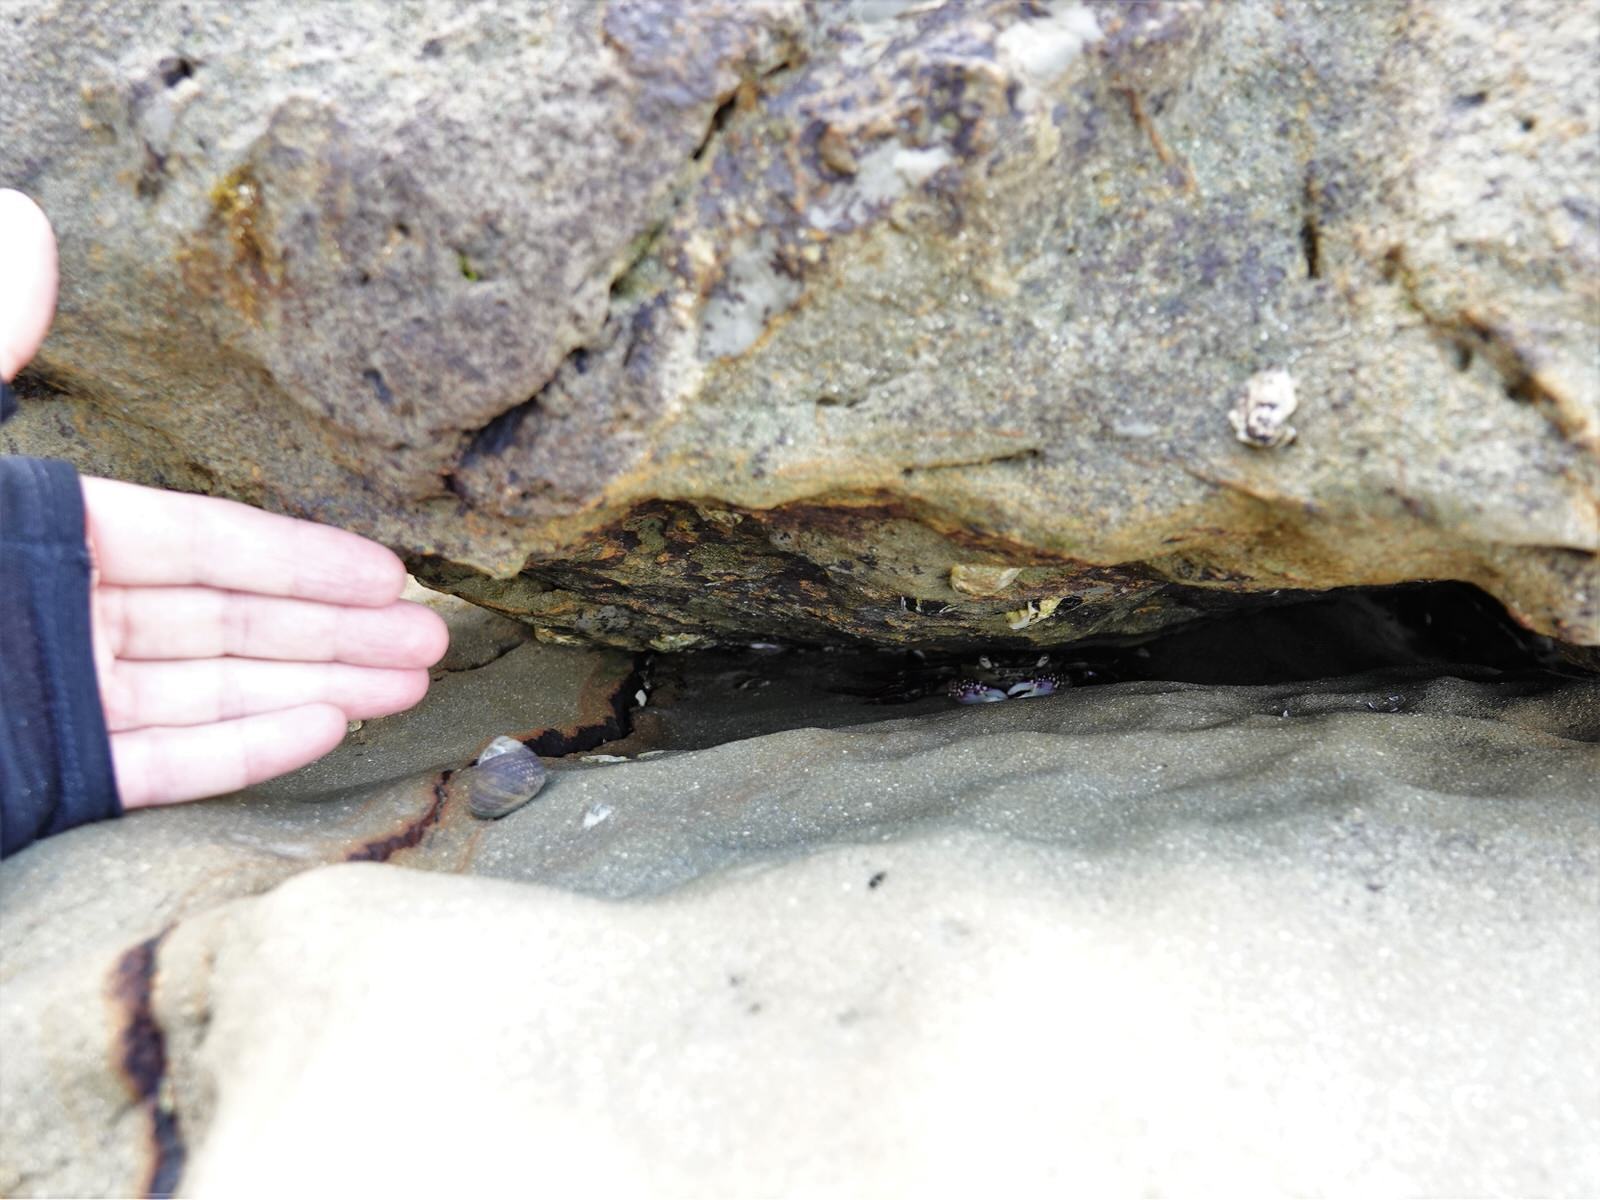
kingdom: Animalia
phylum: Arthropoda
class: Malacostraca
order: Decapoda
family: Grapsidae
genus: Leptograpsus
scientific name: Leptograpsus variegatus
